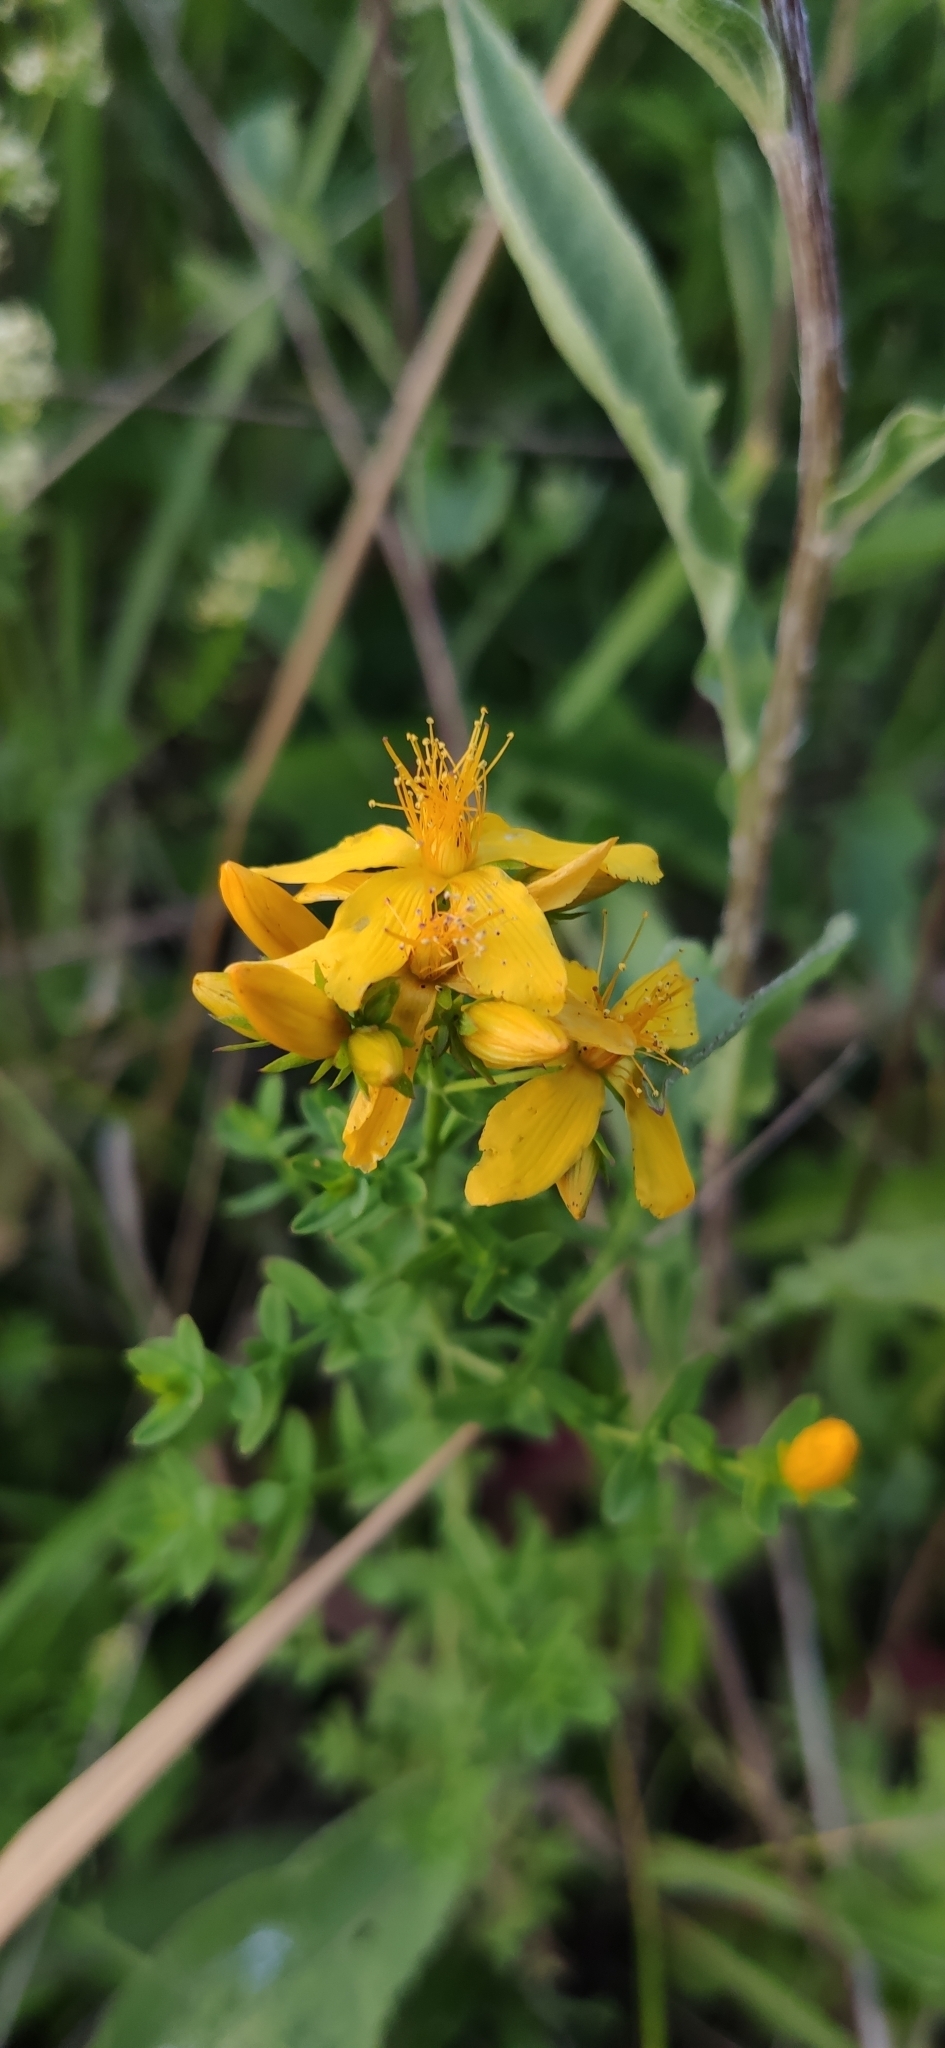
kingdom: Plantae
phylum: Tracheophyta
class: Magnoliopsida
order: Malpighiales
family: Hypericaceae
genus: Hypericum
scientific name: Hypericum perforatum
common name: Common st. johnswort
